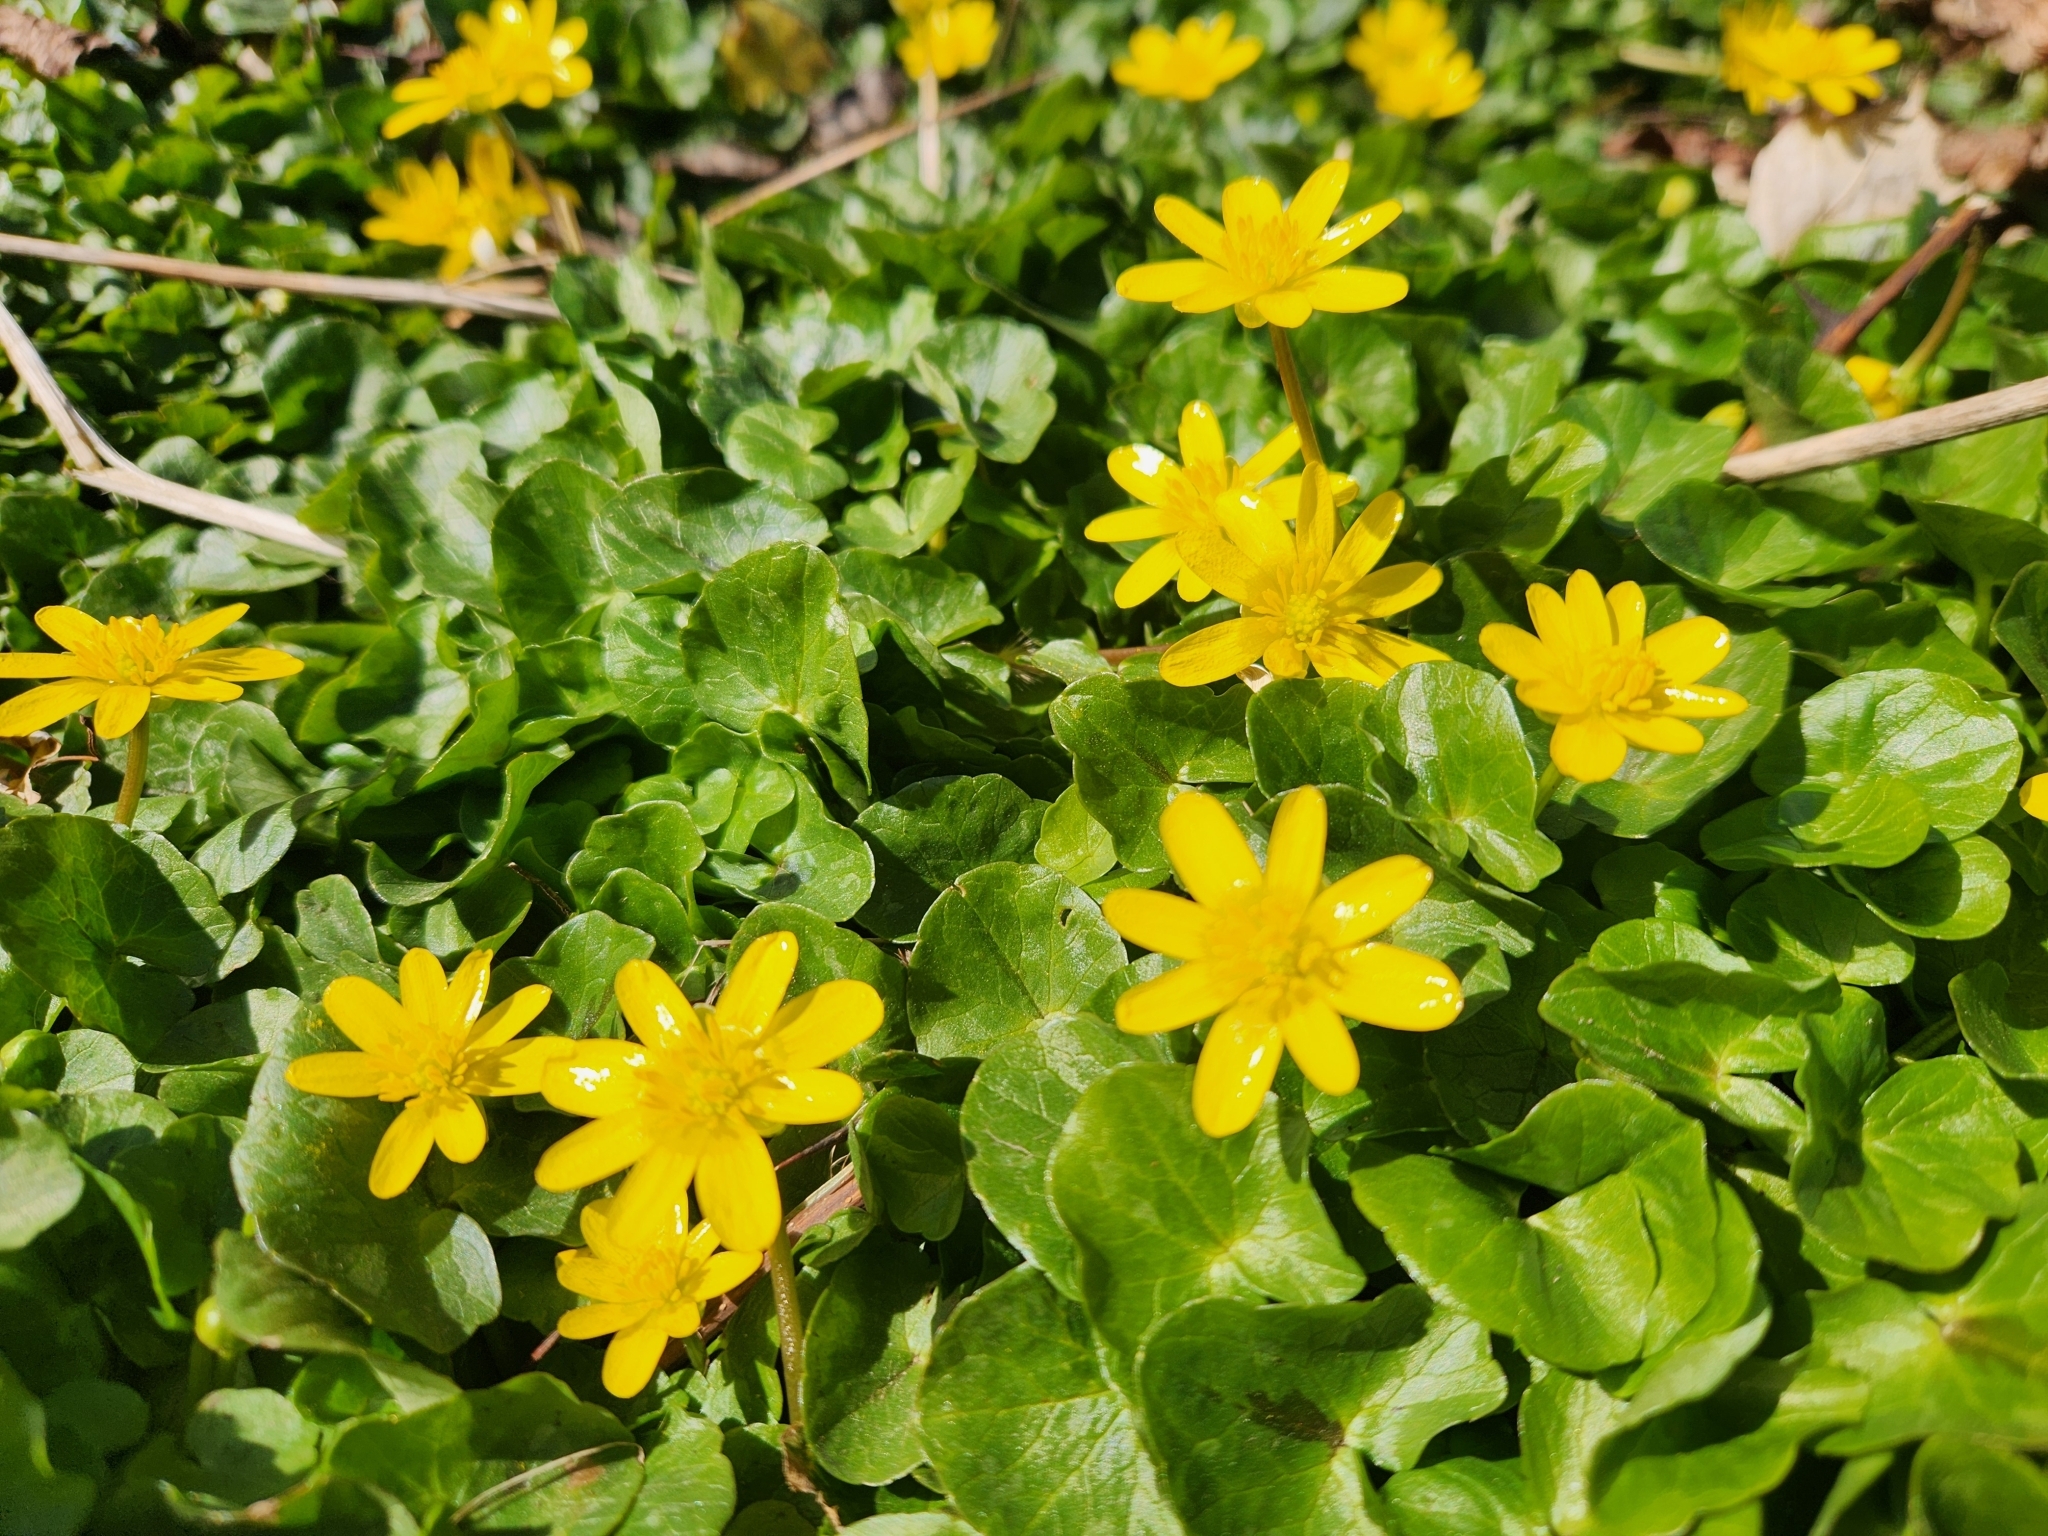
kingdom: Plantae
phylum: Tracheophyta
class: Magnoliopsida
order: Ranunculales
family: Ranunculaceae
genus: Ficaria
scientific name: Ficaria verna
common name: Lesser celandine
